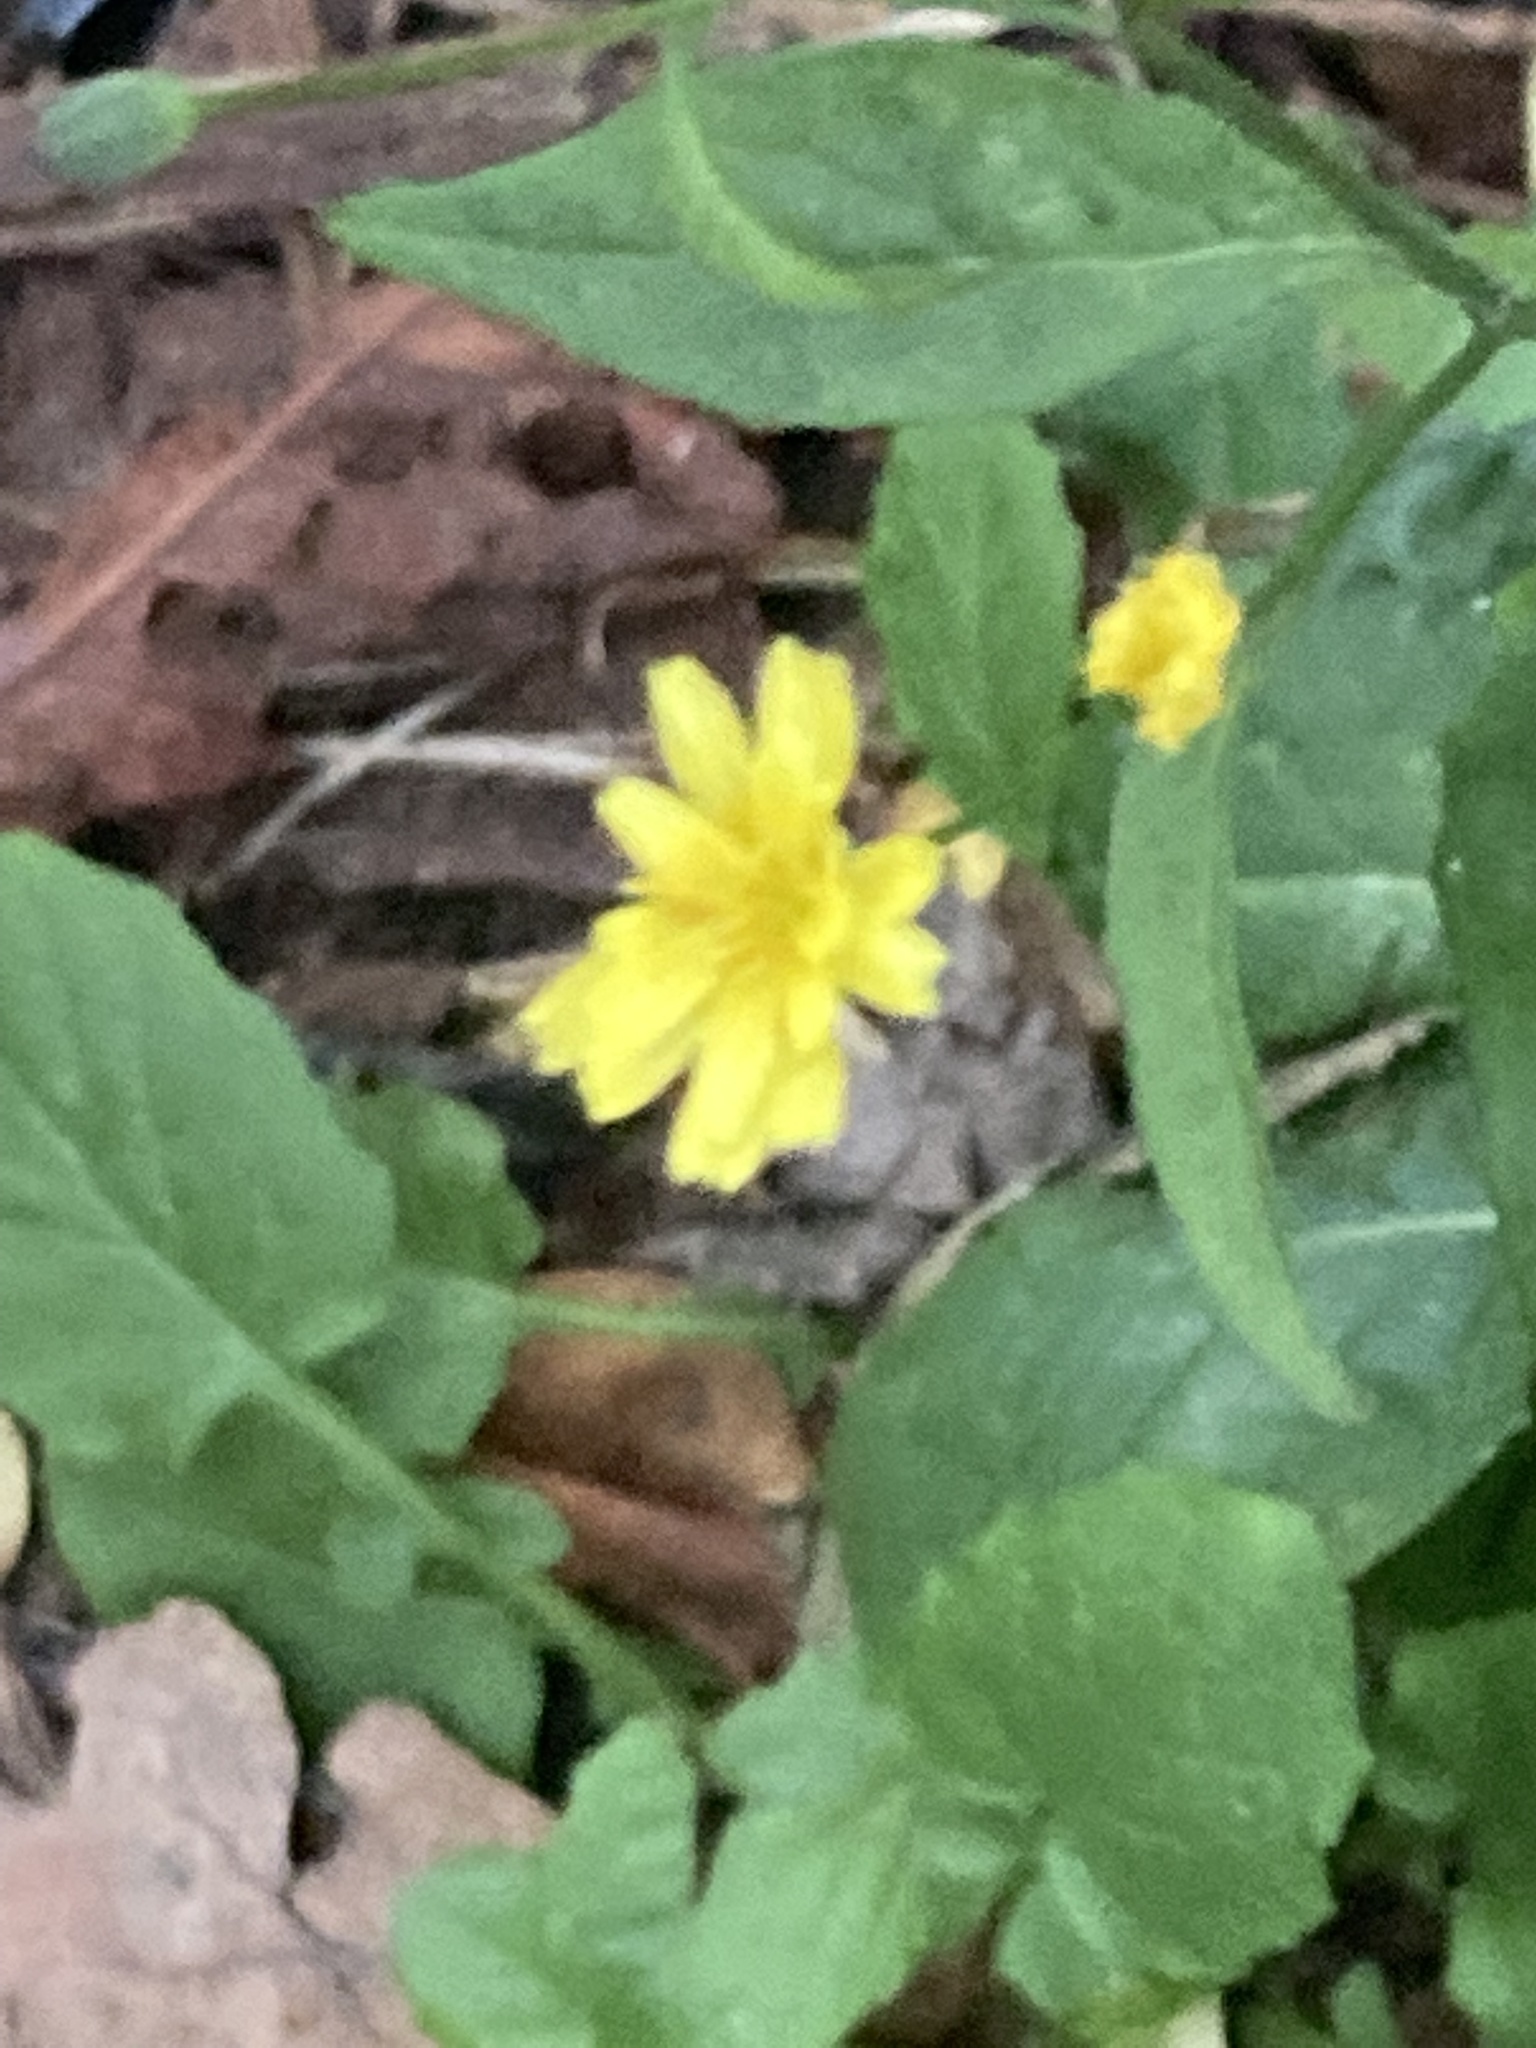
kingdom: Plantae
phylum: Tracheophyta
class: Magnoliopsida
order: Asterales
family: Asteraceae
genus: Lapsana
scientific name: Lapsana communis
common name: Nipplewort
